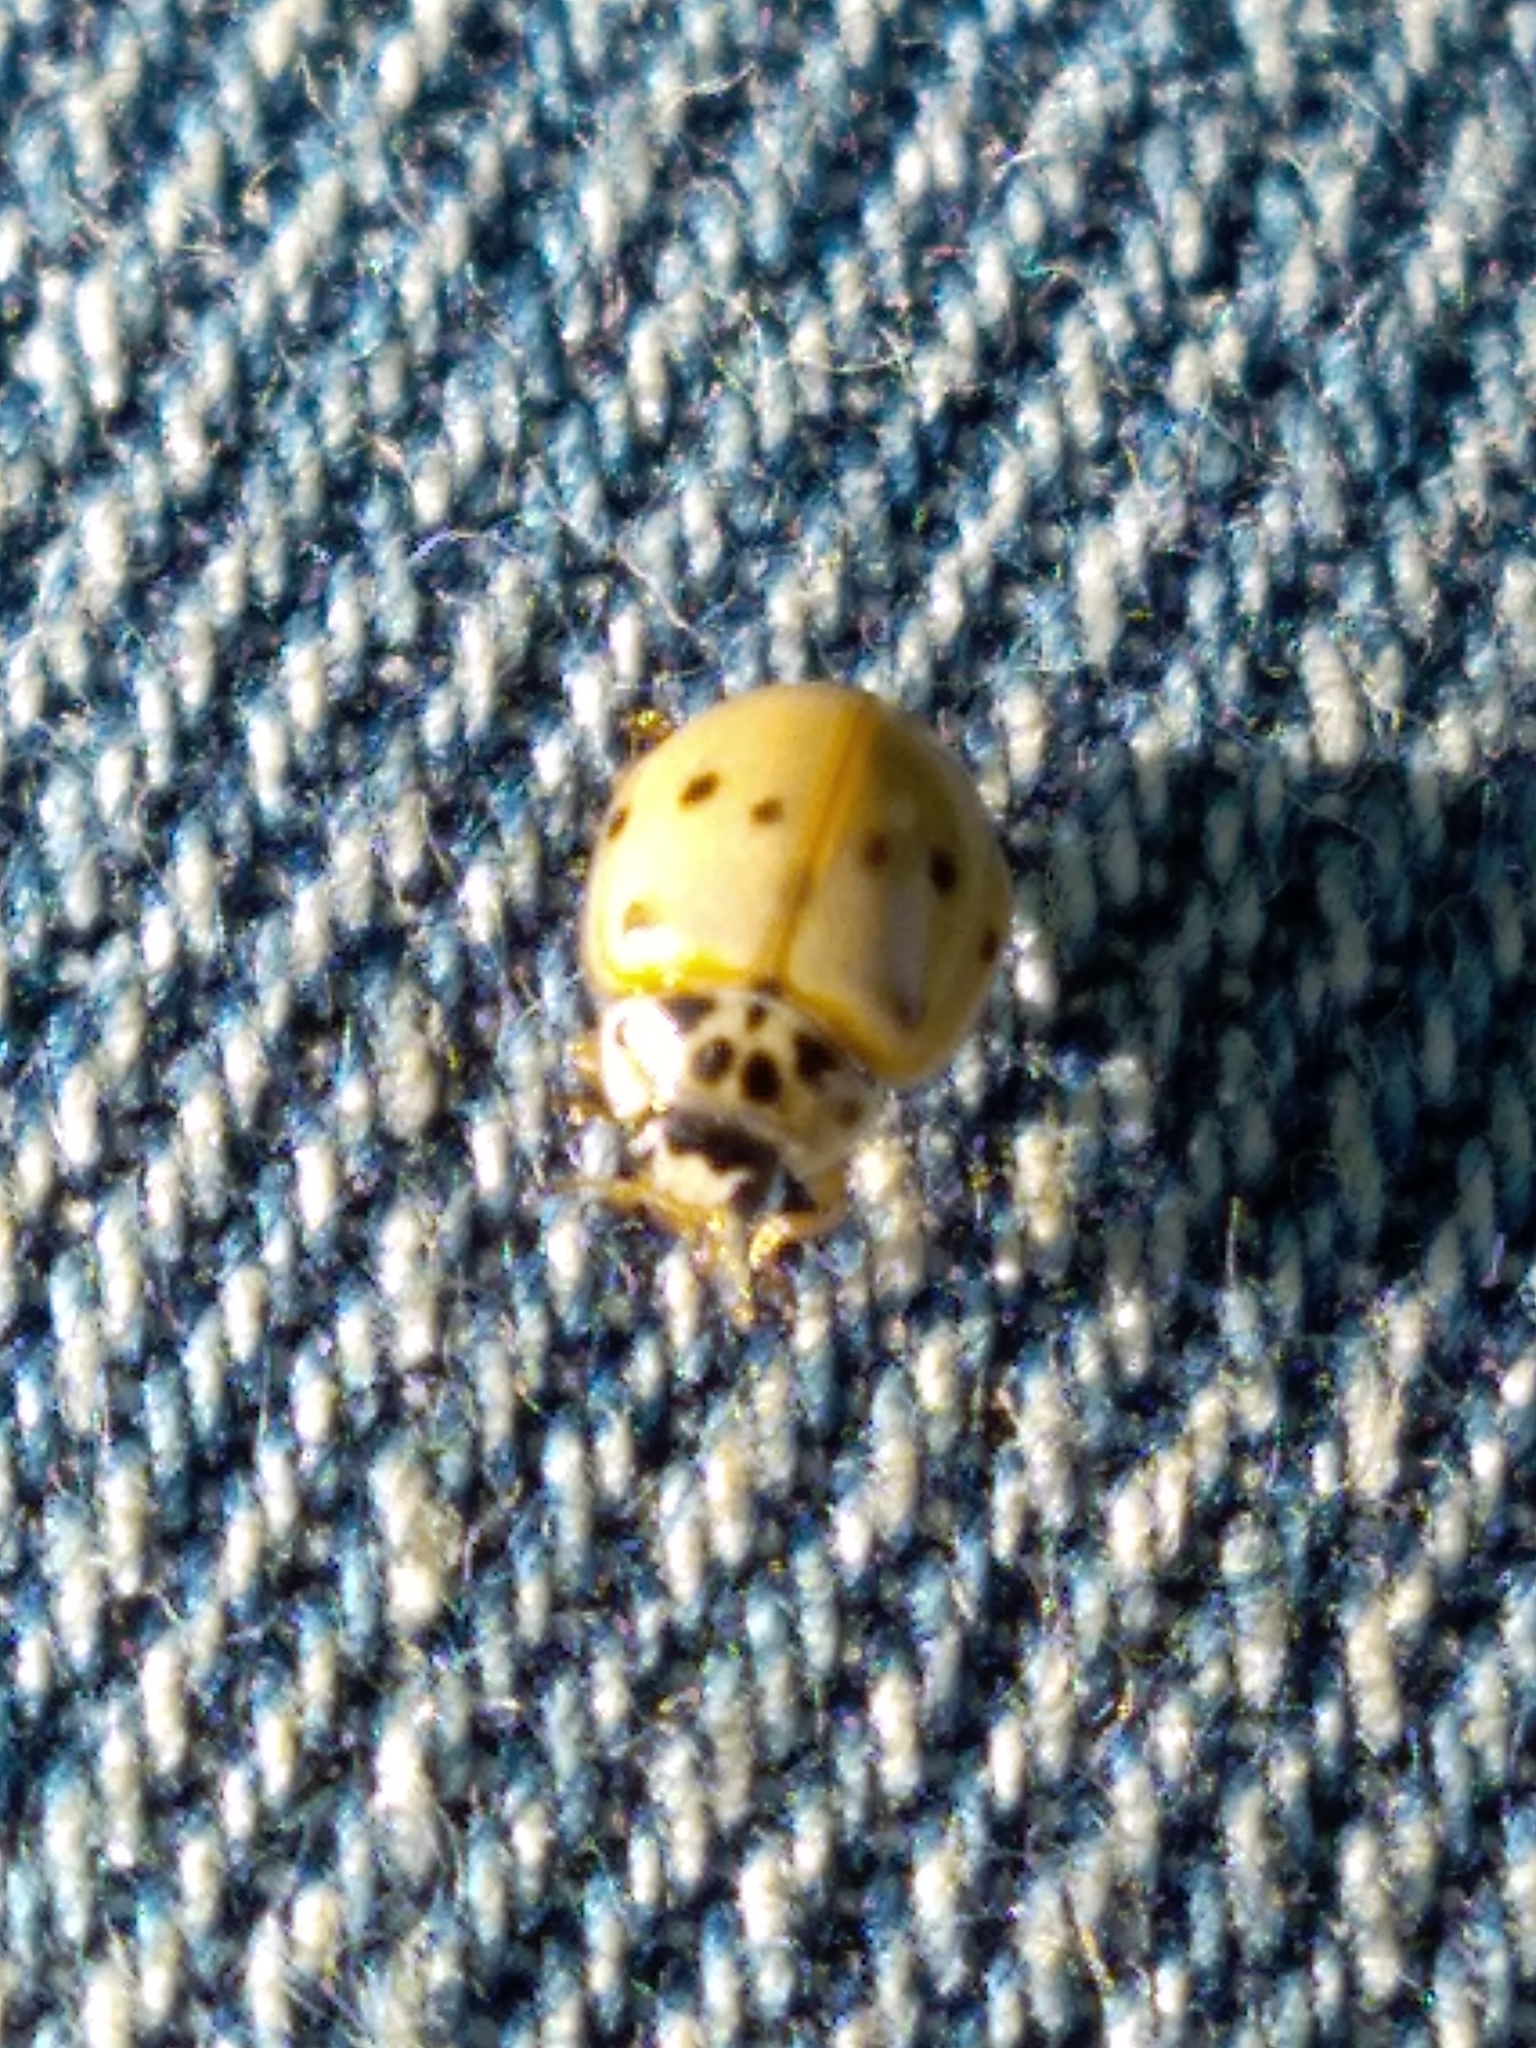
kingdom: Animalia
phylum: Arthropoda
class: Insecta
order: Coleoptera
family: Coccinellidae
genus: Adalia
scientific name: Adalia decempunctata
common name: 10-spot ladybird
